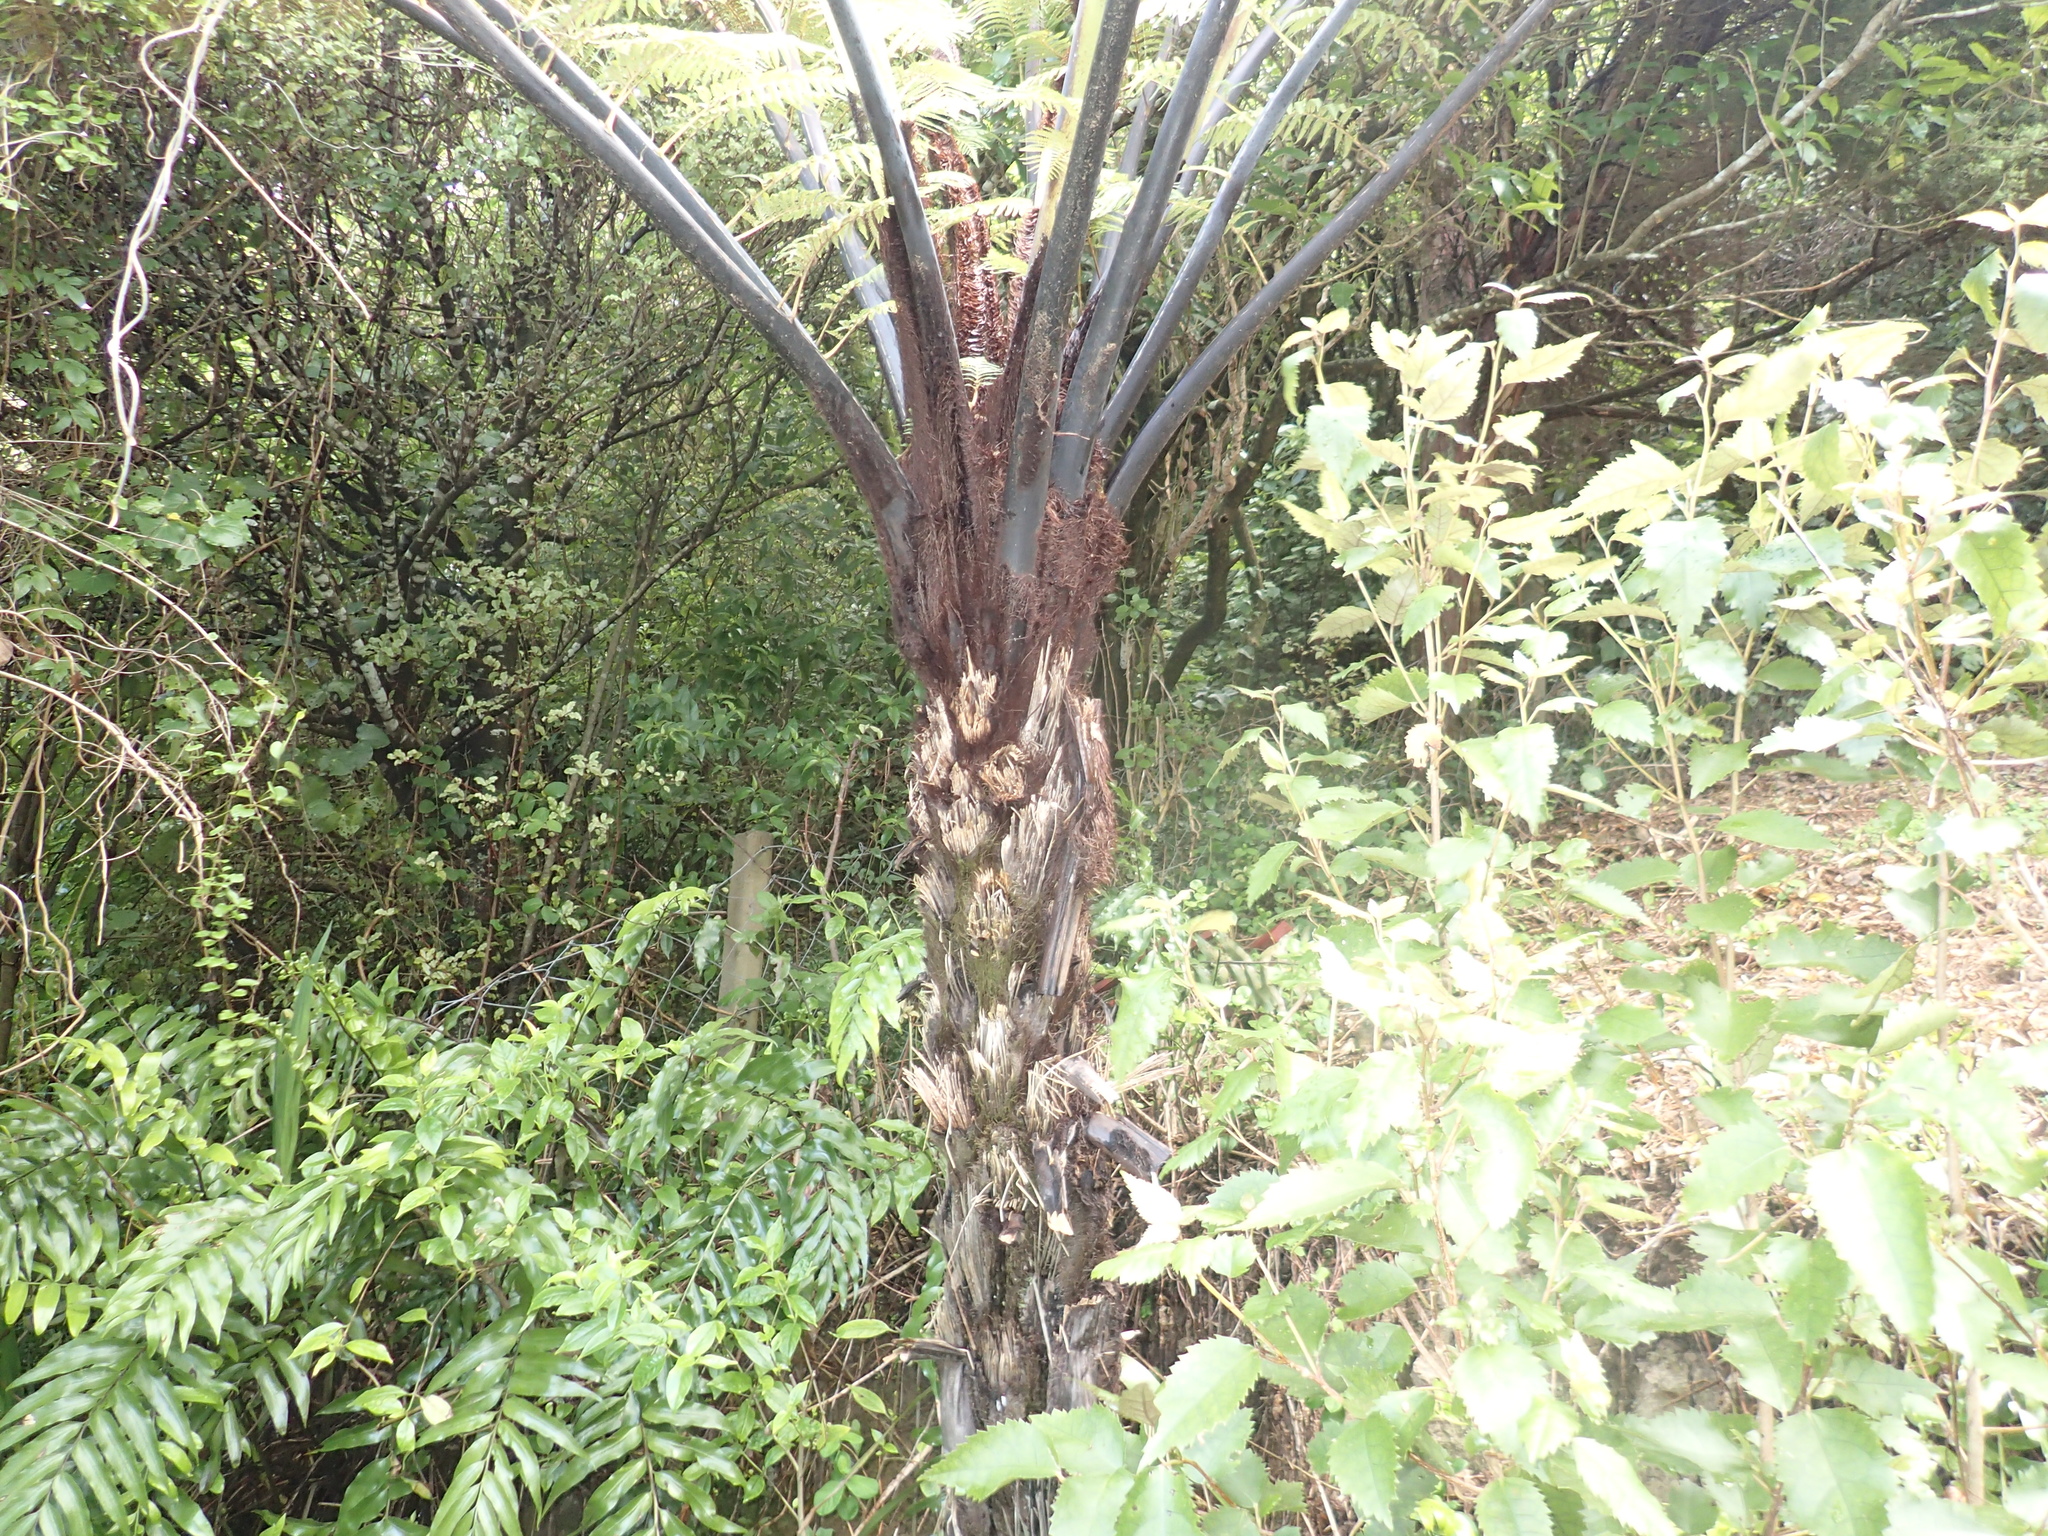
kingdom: Plantae
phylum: Tracheophyta
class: Polypodiopsida
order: Cyatheales
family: Cyatheaceae
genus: Sphaeropteris
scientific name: Sphaeropteris medullaris
